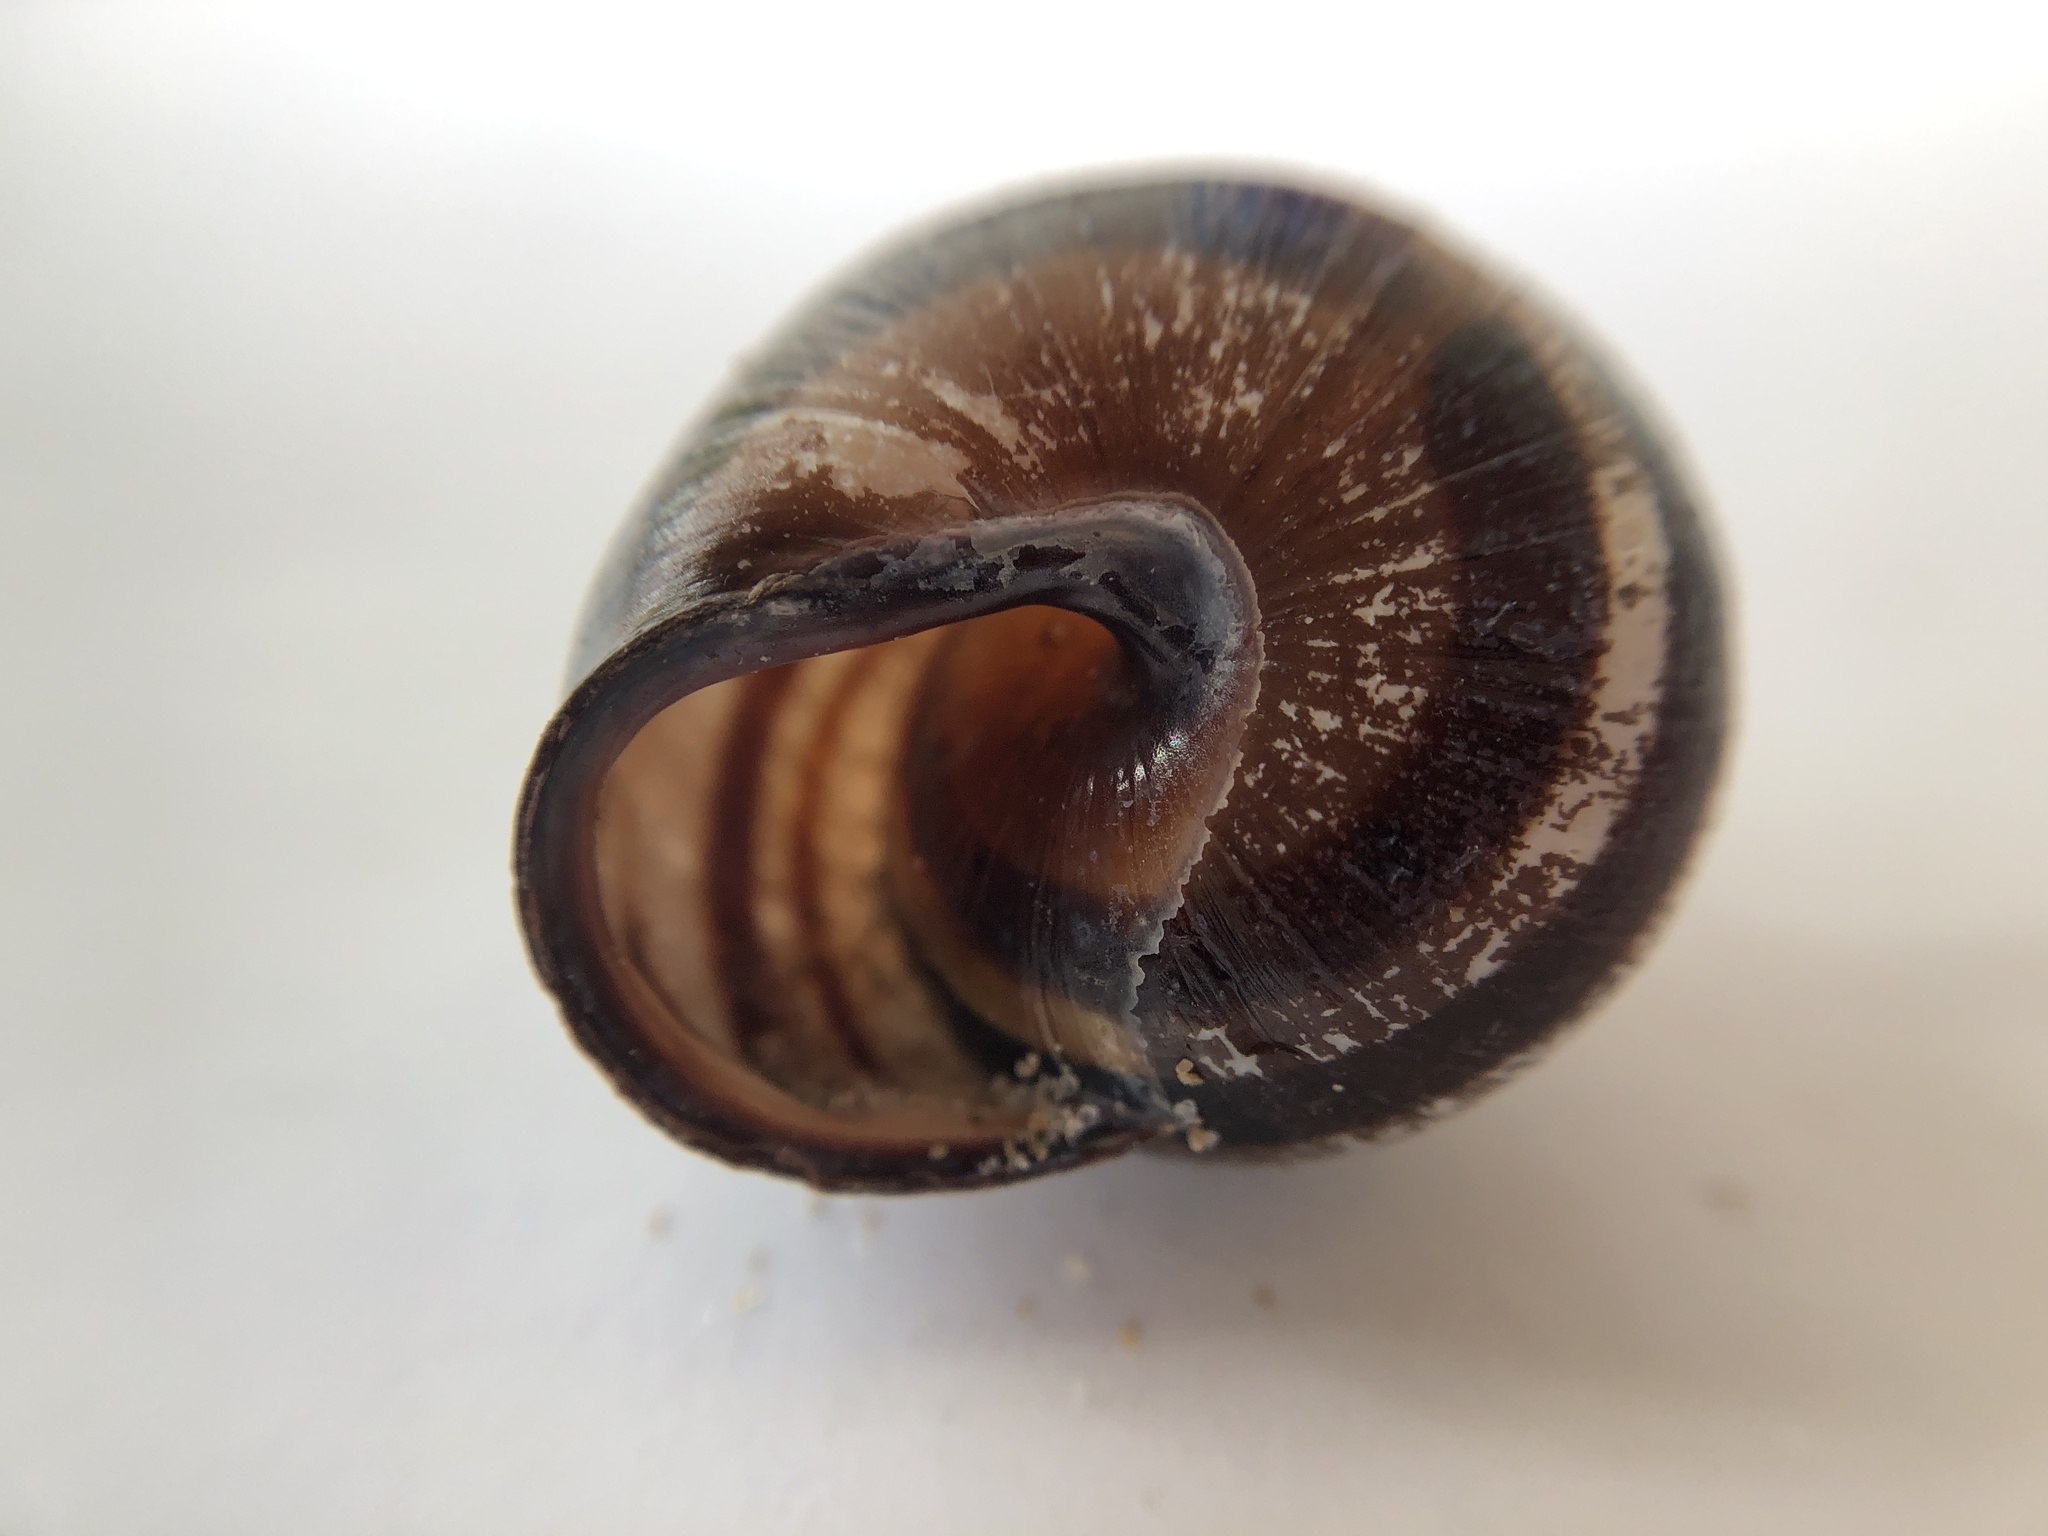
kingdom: Animalia
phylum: Mollusca
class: Gastropoda
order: Stylommatophora
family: Helicidae
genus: Cepaea
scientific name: Cepaea nemoralis
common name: Grovesnail
